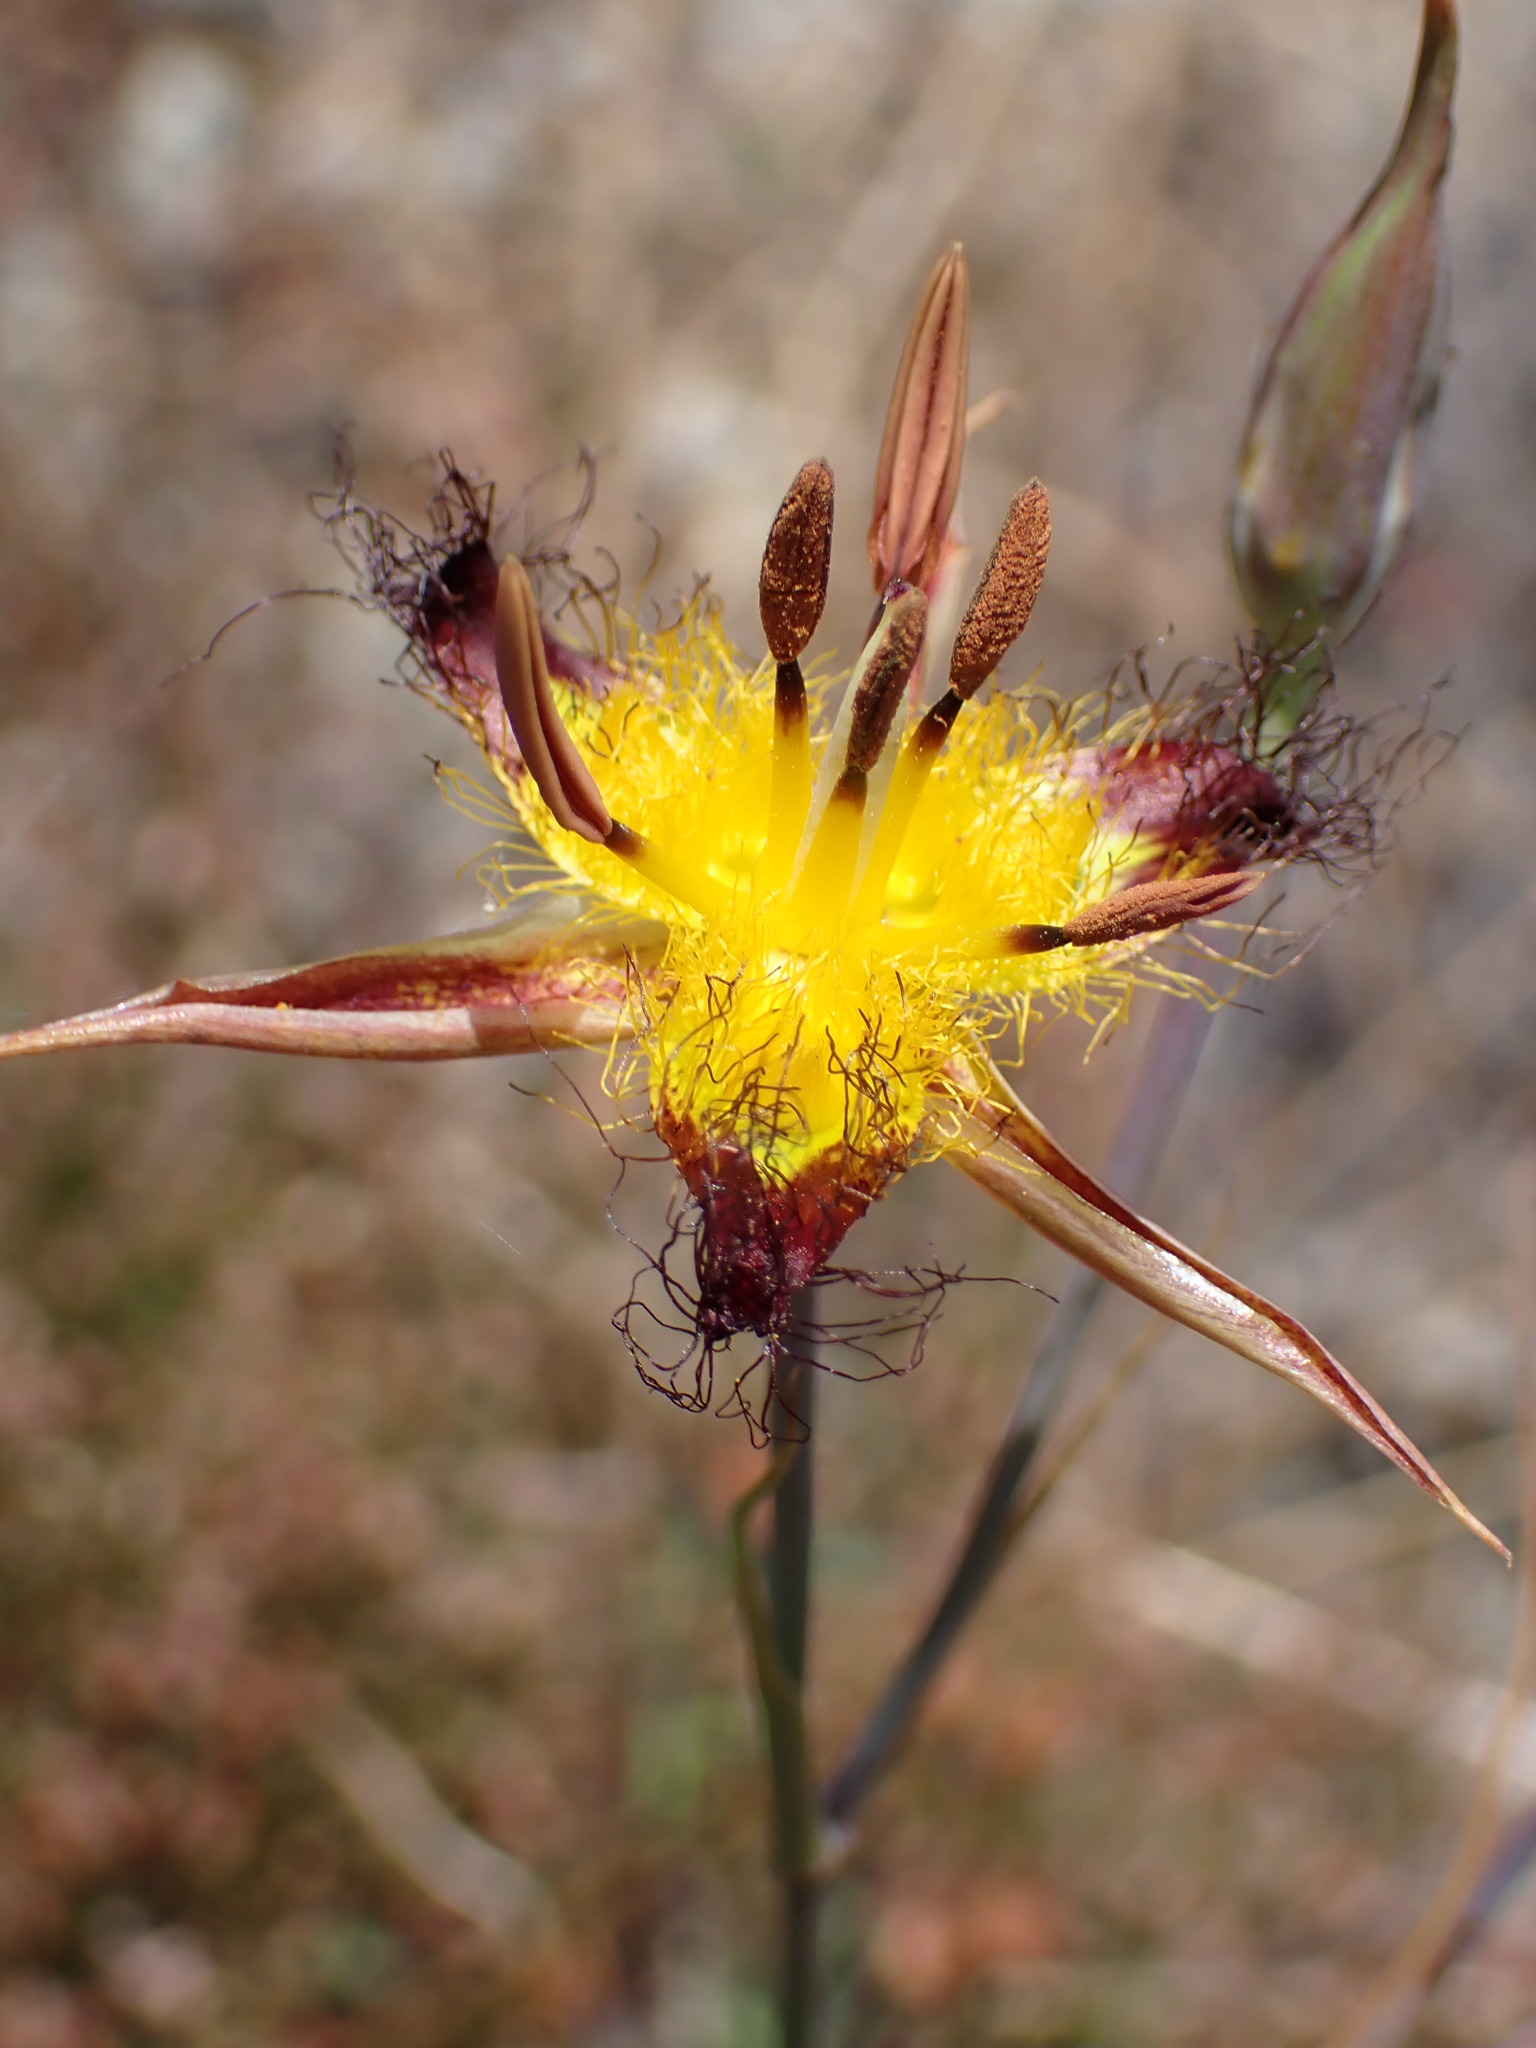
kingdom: Plantae
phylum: Tracheophyta
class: Liliopsida
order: Liliales
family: Liliaceae
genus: Calochortus
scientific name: Calochortus obispoensis
